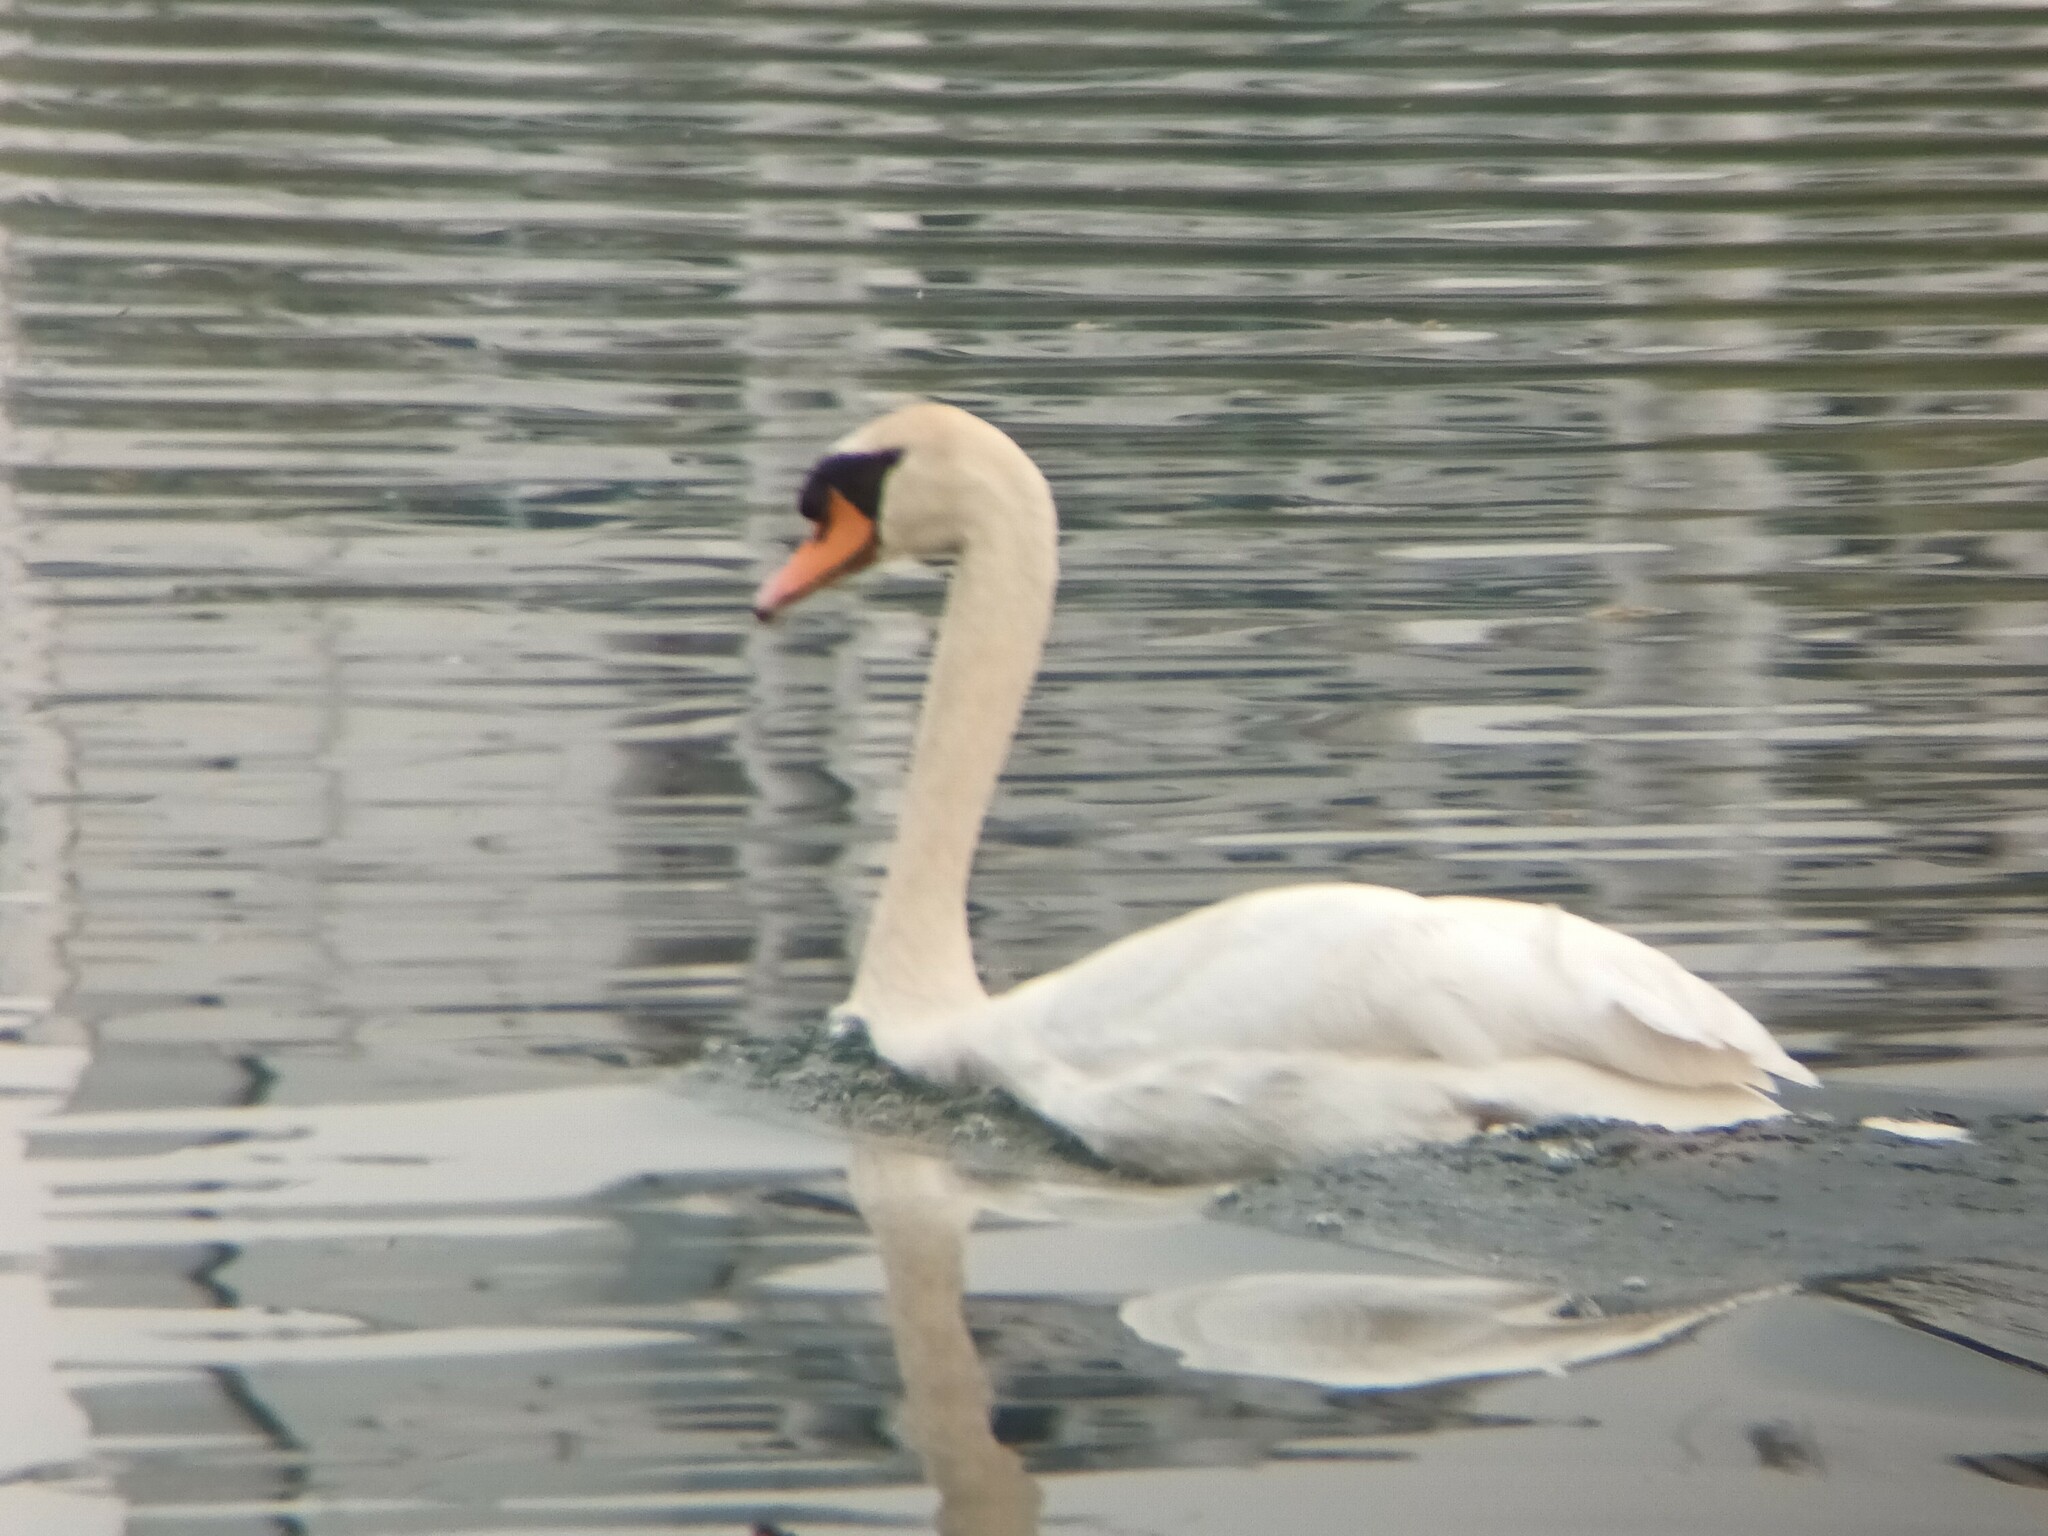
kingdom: Animalia
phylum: Chordata
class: Aves
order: Anseriformes
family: Anatidae
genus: Cygnus
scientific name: Cygnus olor
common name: Mute swan
